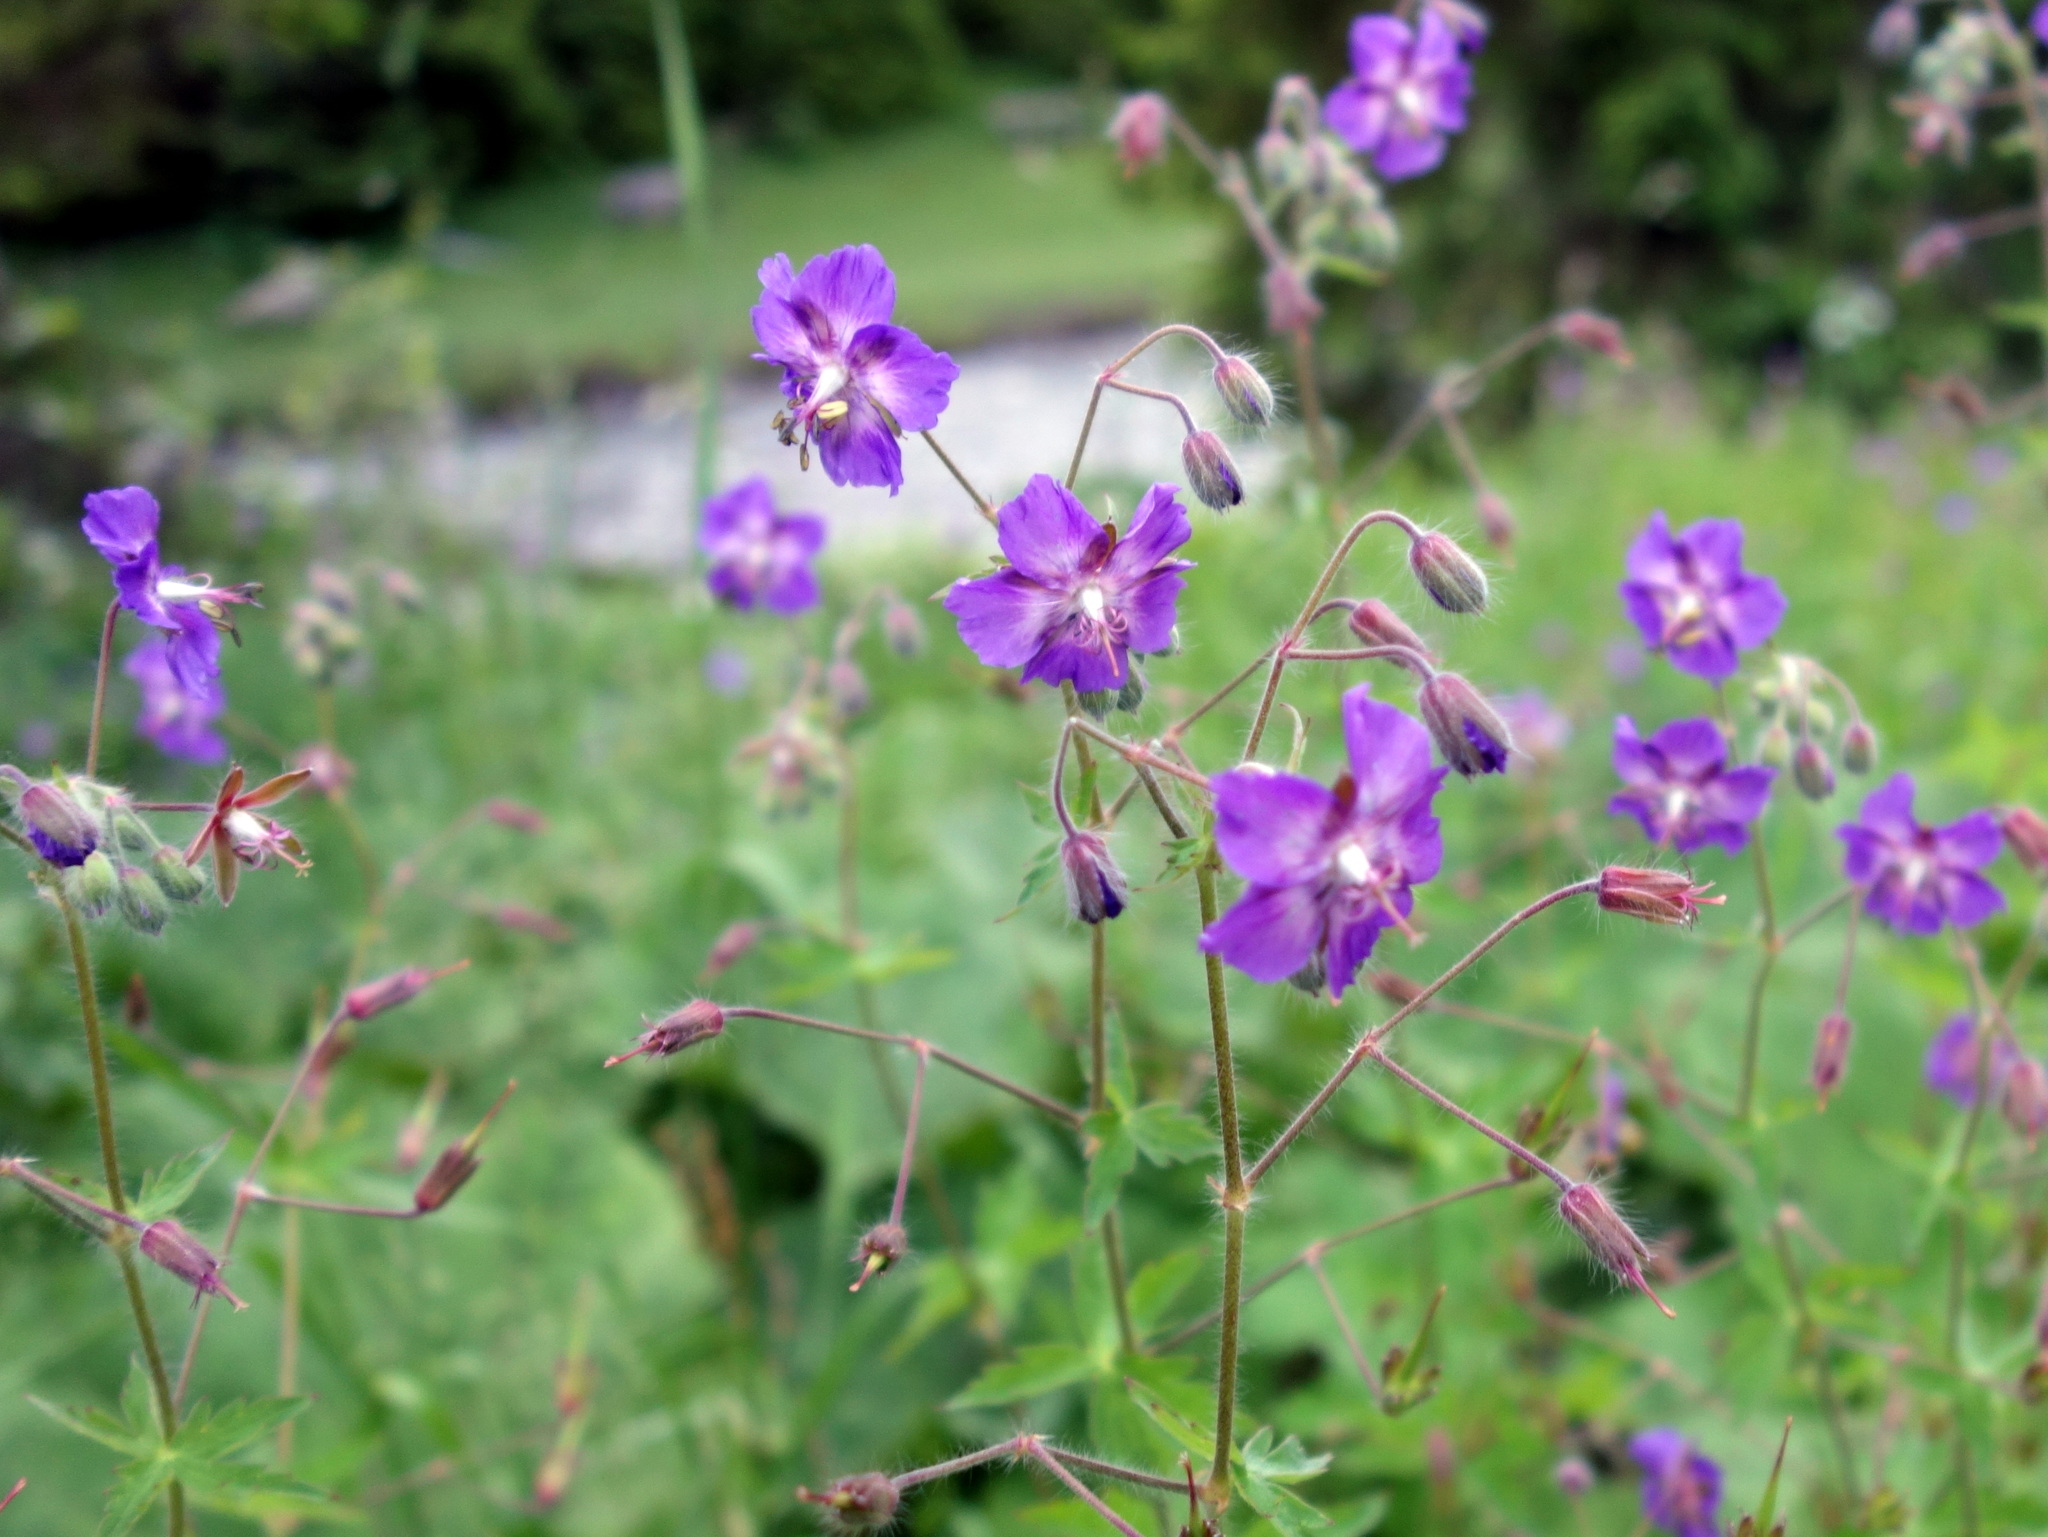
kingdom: Plantae
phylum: Tracheophyta
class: Magnoliopsida
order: Geraniales
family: Geraniaceae
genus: Geranium
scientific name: Geranium phaeum
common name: Dusky crane's-bill
